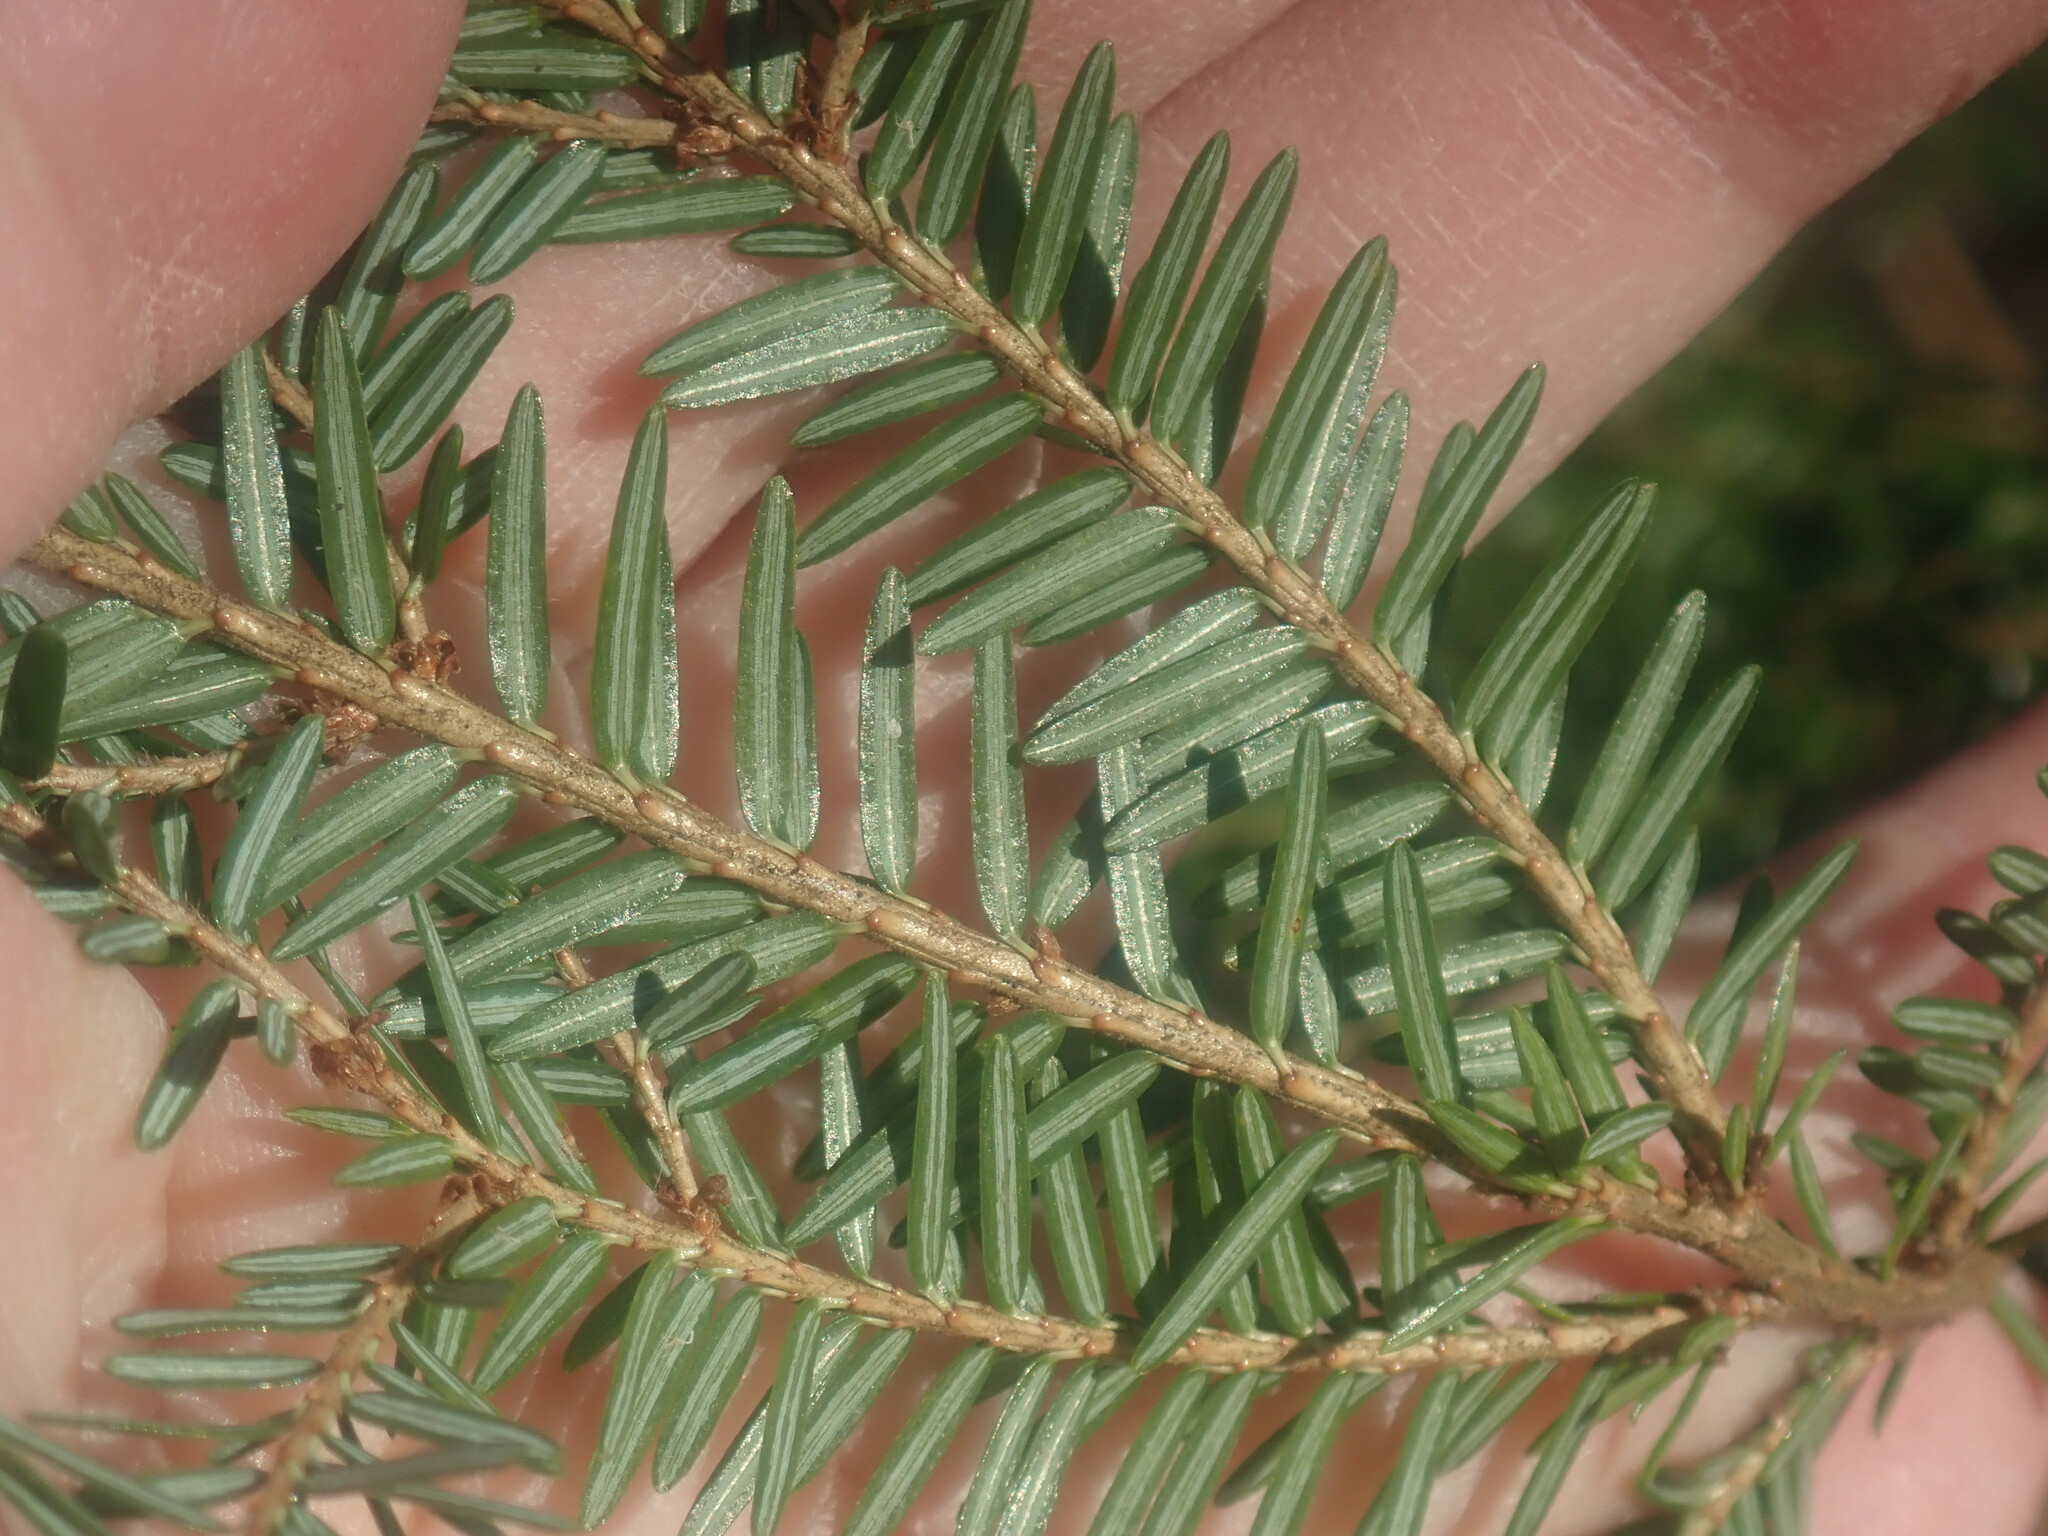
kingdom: Plantae
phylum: Tracheophyta
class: Pinopsida
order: Pinales
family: Pinaceae
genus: Tsuga
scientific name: Tsuga canadensis
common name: Eastern hemlock
